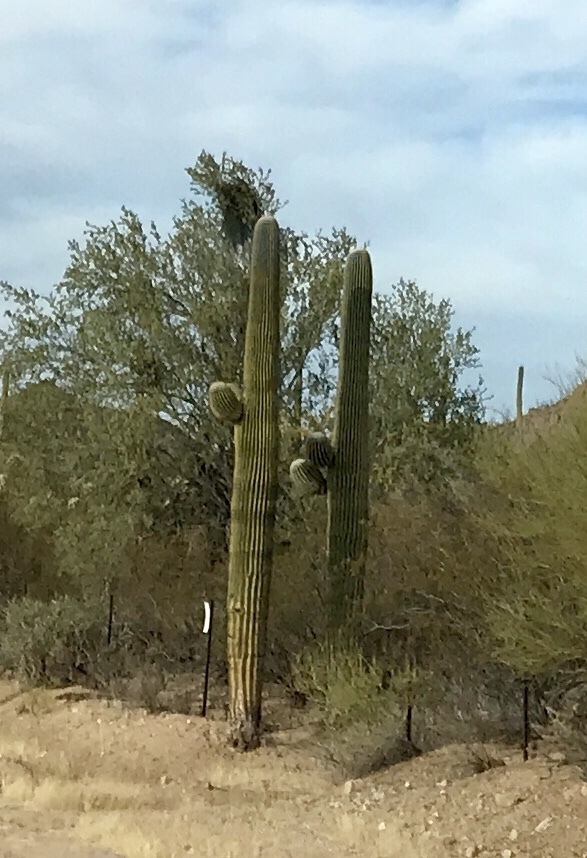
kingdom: Plantae
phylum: Tracheophyta
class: Magnoliopsida
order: Caryophyllales
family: Cactaceae
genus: Carnegiea
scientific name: Carnegiea gigantea
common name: Saguaro
